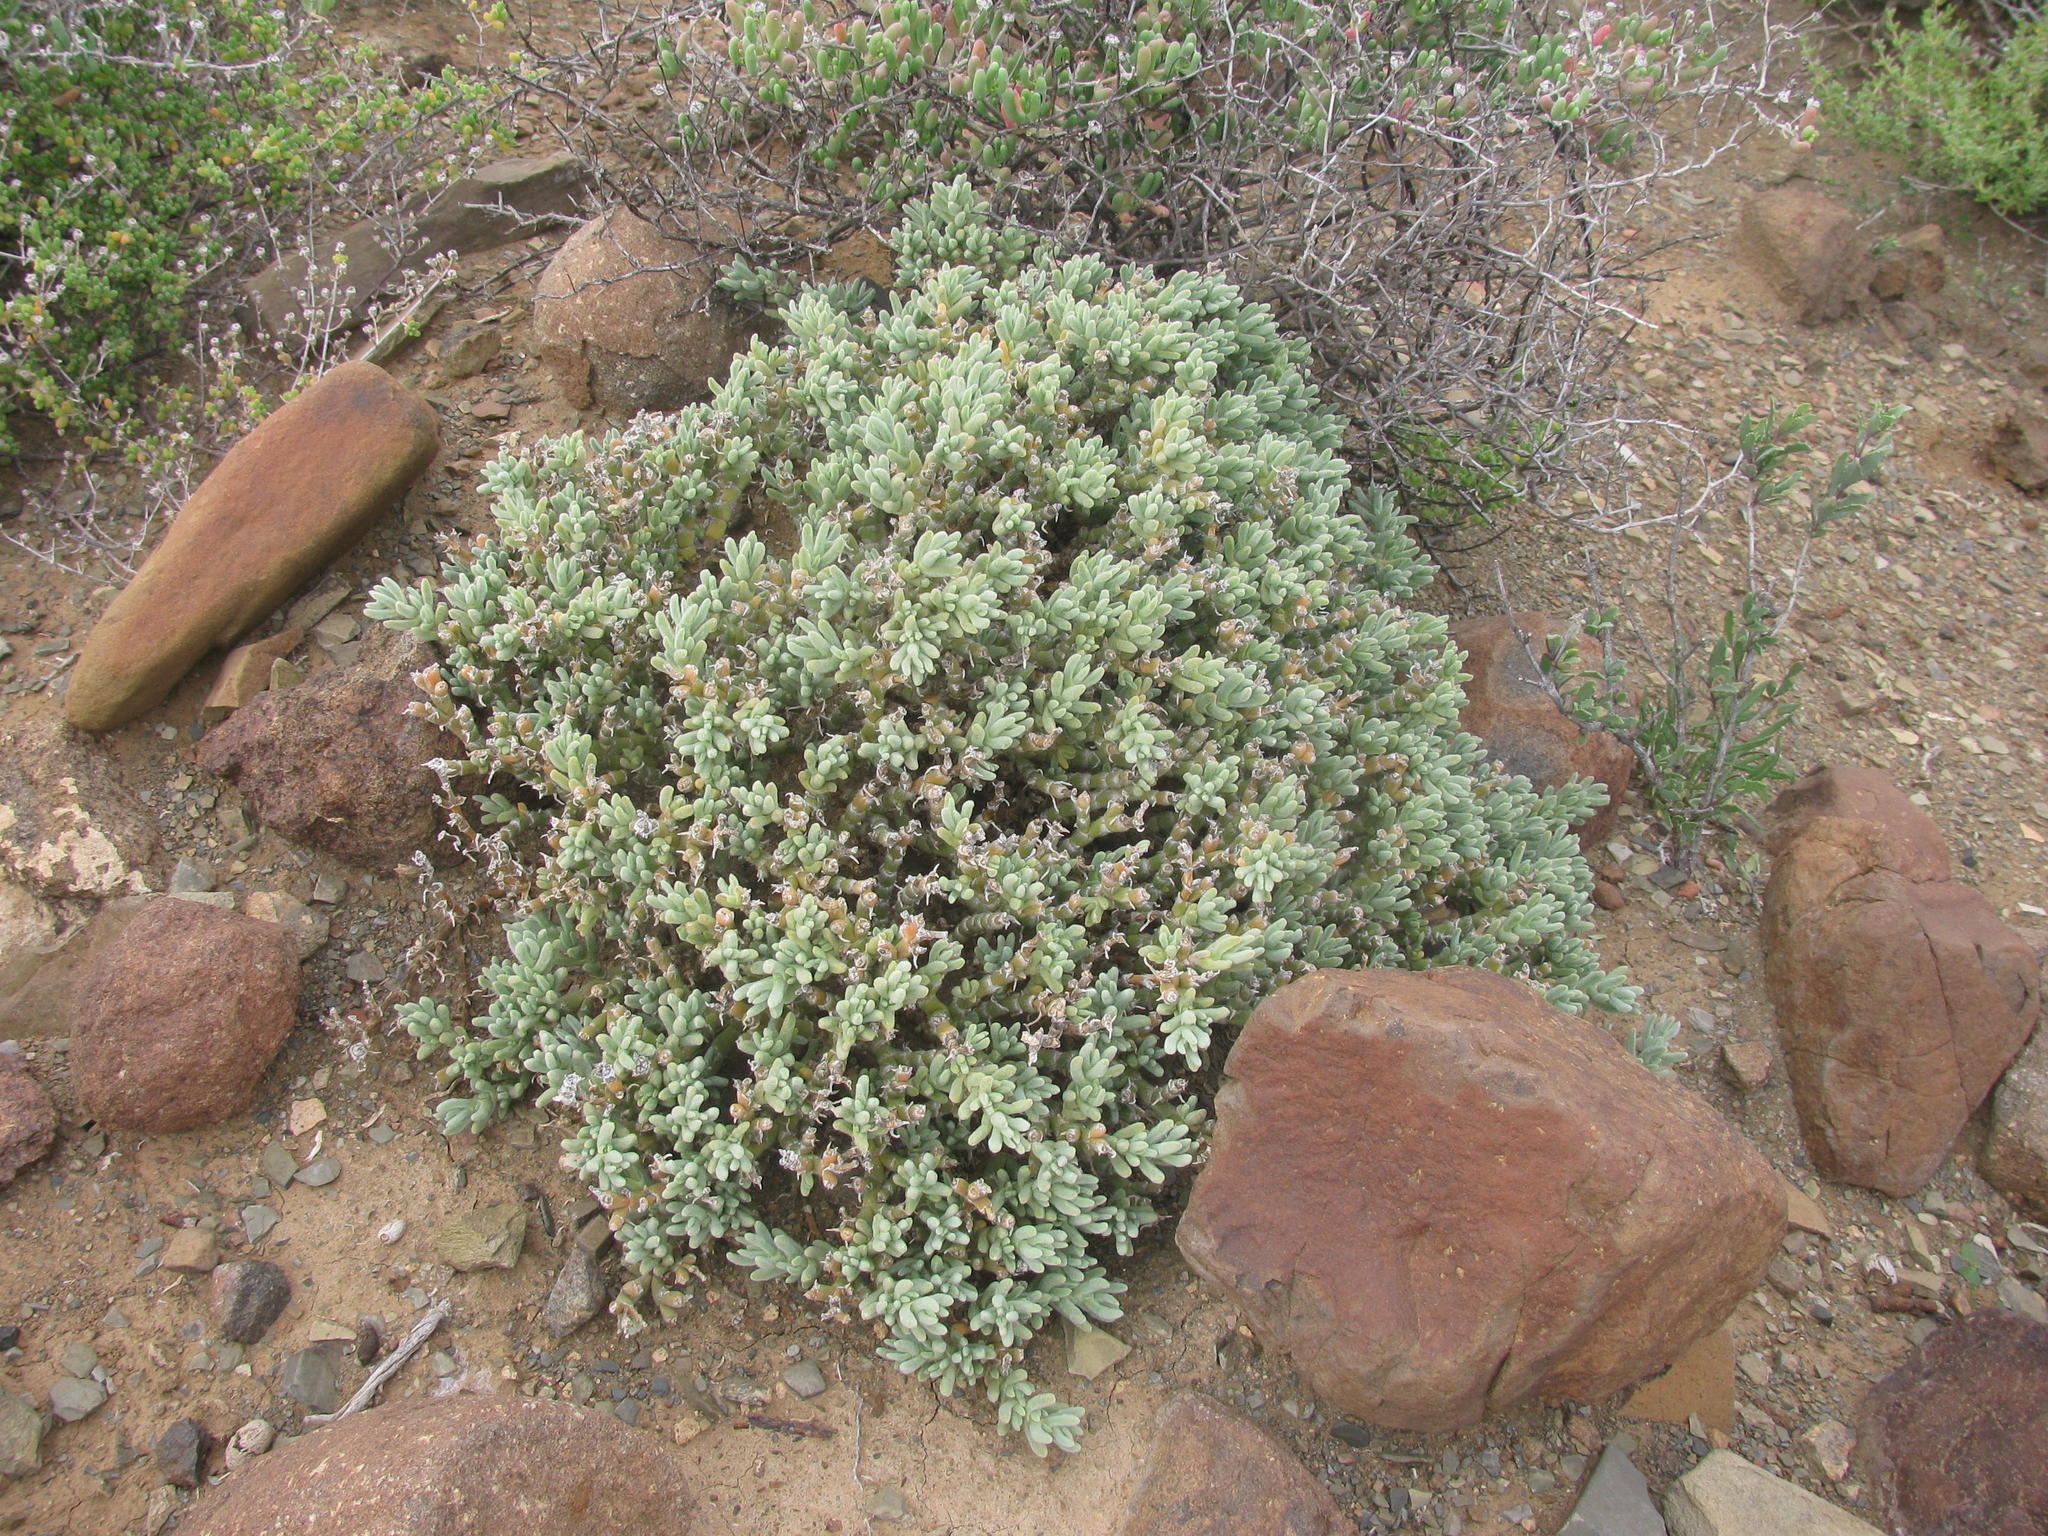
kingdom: Plantae
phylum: Tracheophyta
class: Magnoliopsida
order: Caryophyllales
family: Aizoaceae
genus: Mesembryanthemum
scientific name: Mesembryanthemum vaginatum
